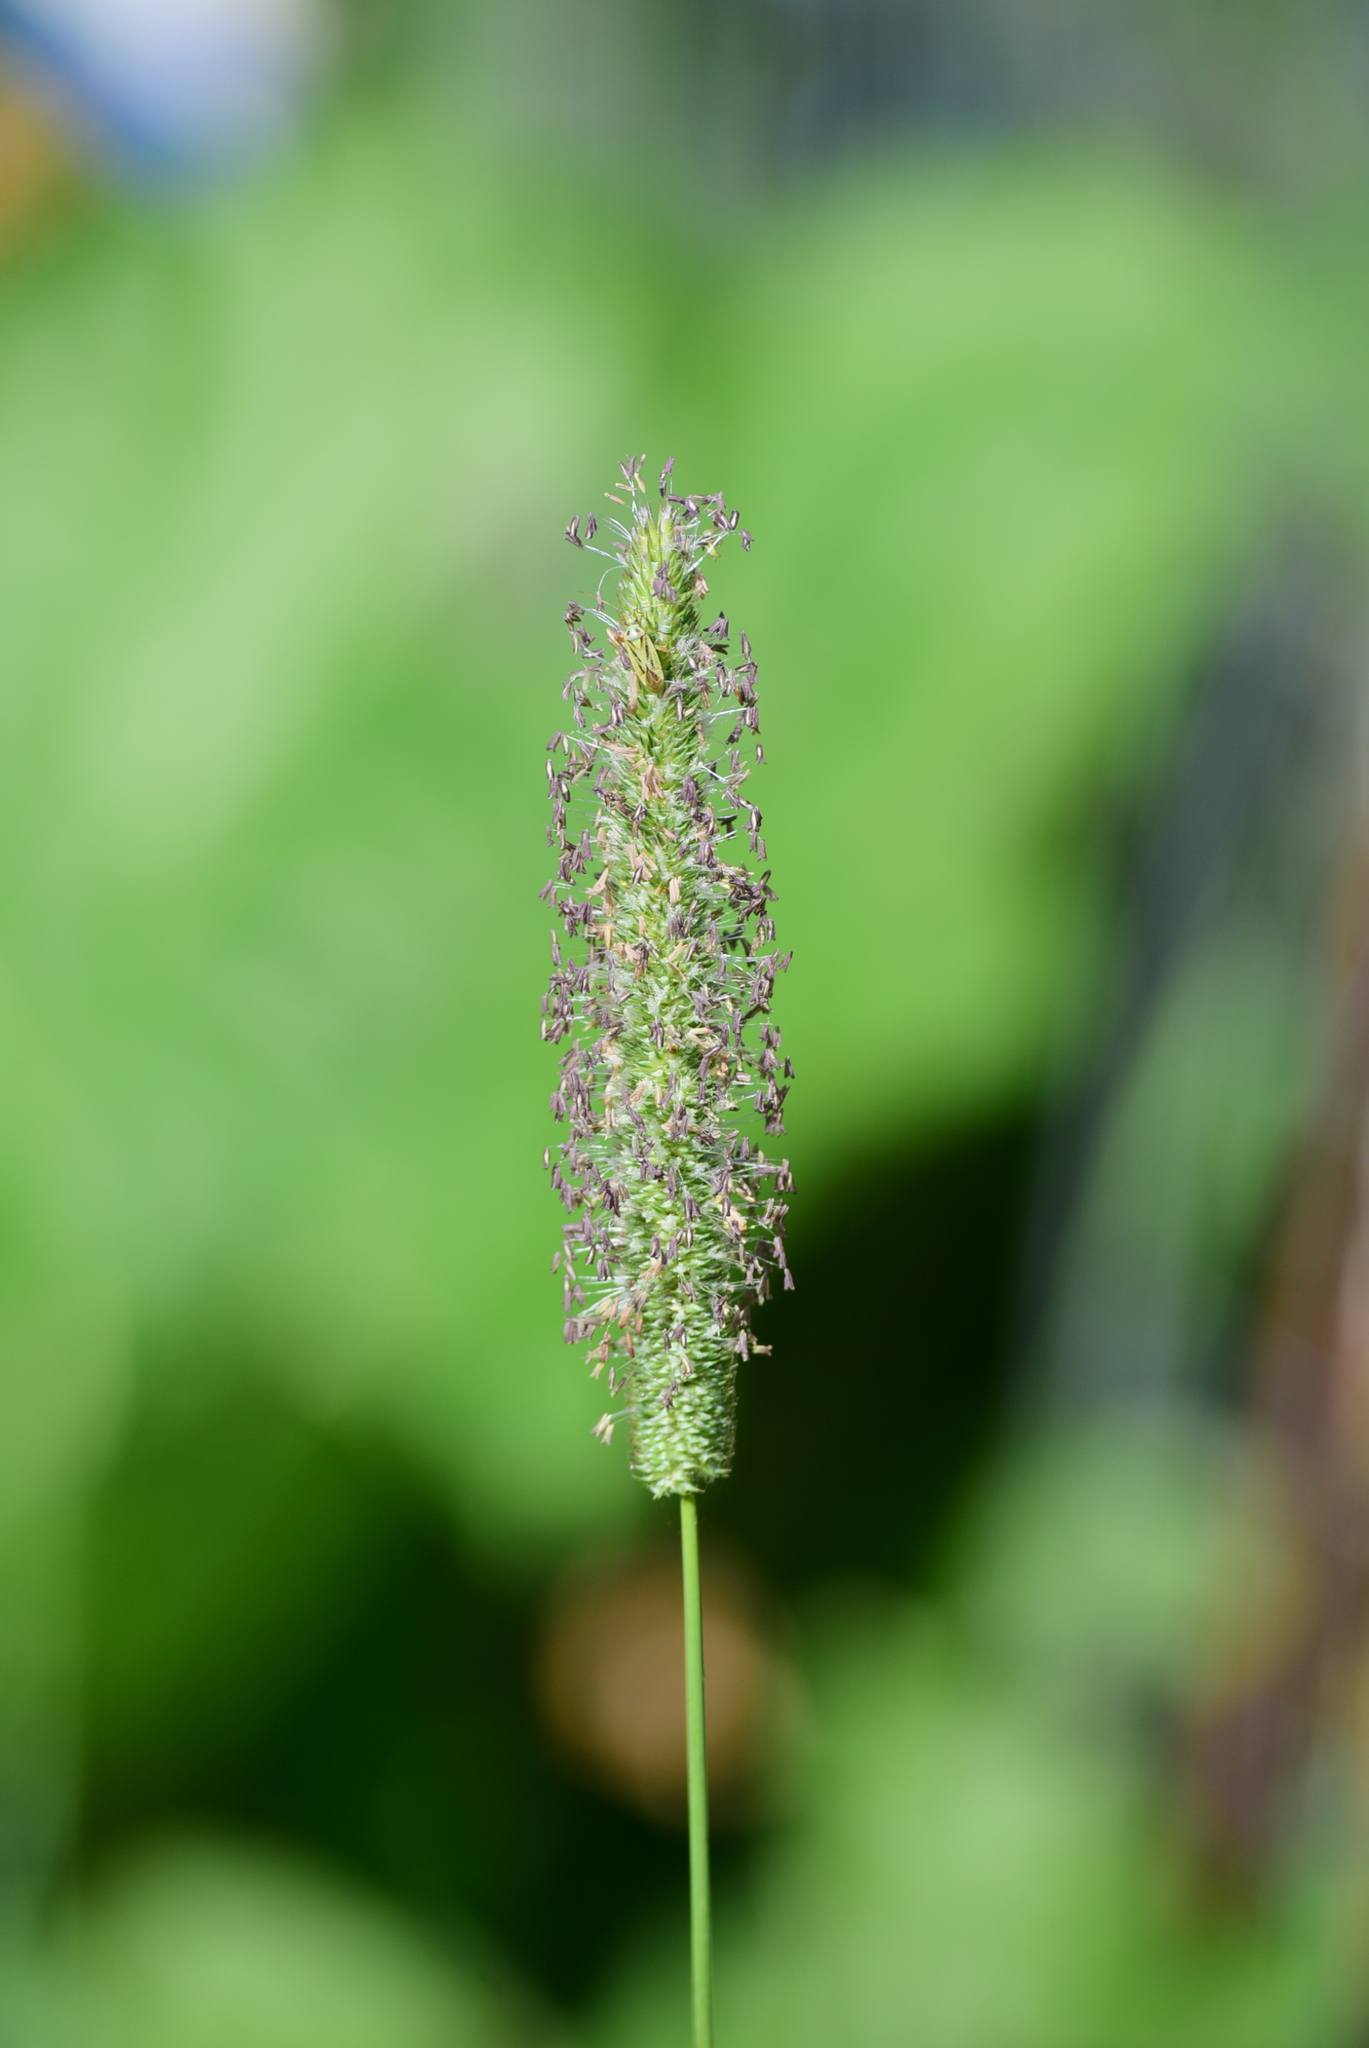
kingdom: Plantae
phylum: Tracheophyta
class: Liliopsida
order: Poales
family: Poaceae
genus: Phleum
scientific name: Phleum pratense
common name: Timothy grass
